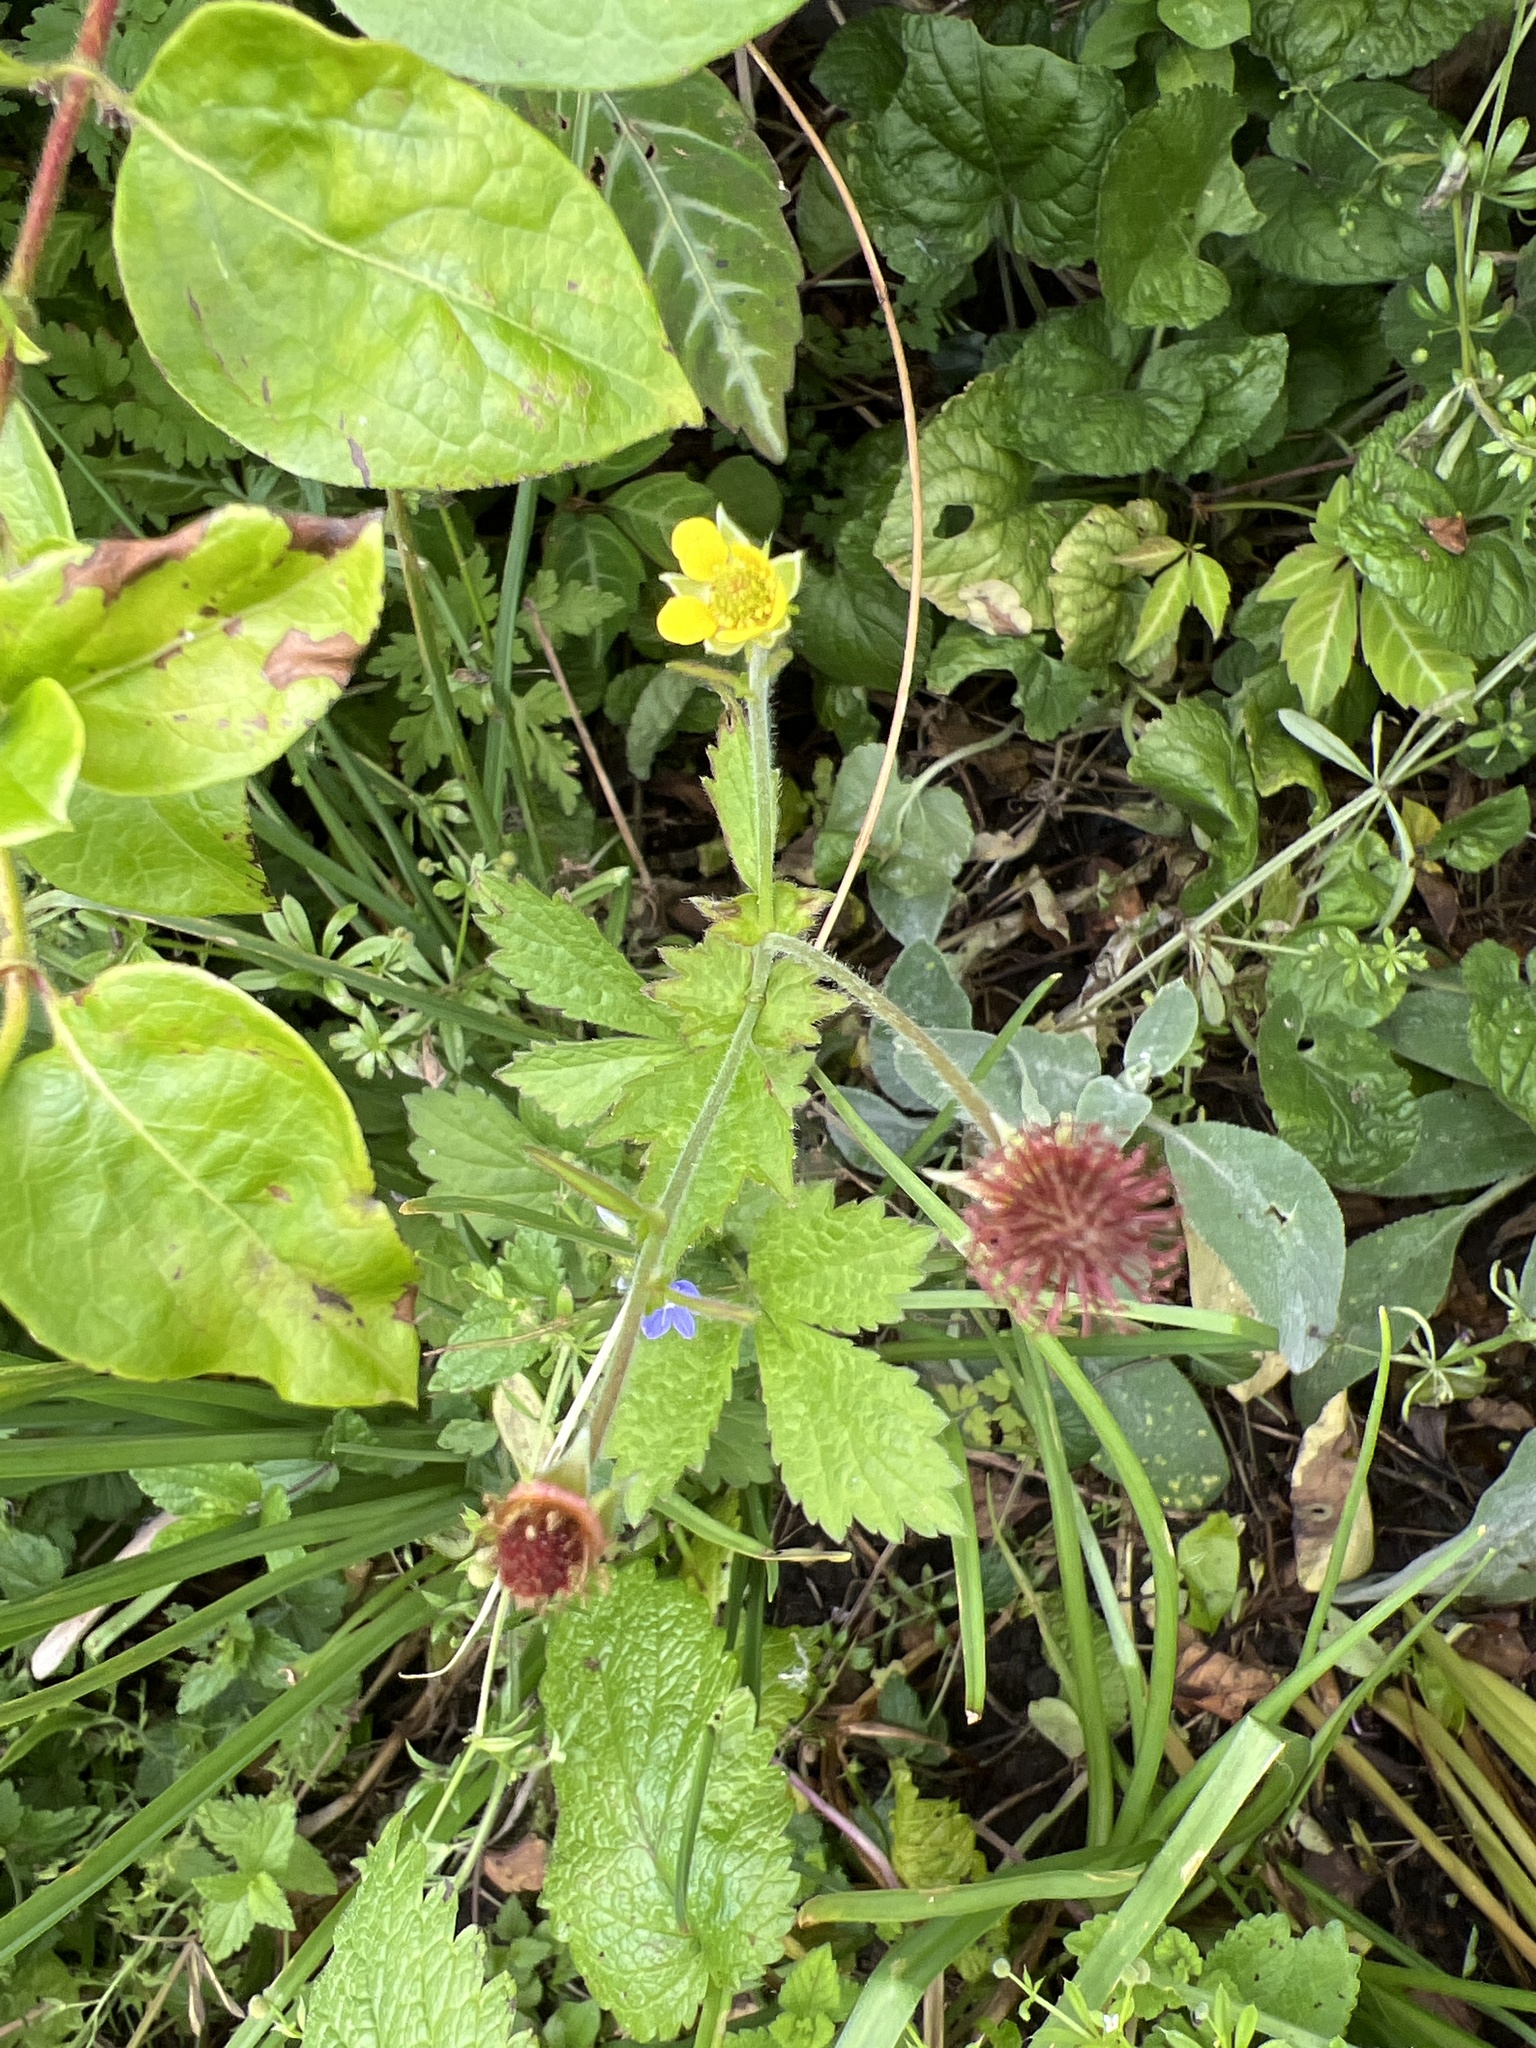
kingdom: Plantae
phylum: Tracheophyta
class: Magnoliopsida
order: Rosales
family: Rosaceae
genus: Geum
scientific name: Geum urbanum
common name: Wood avens
